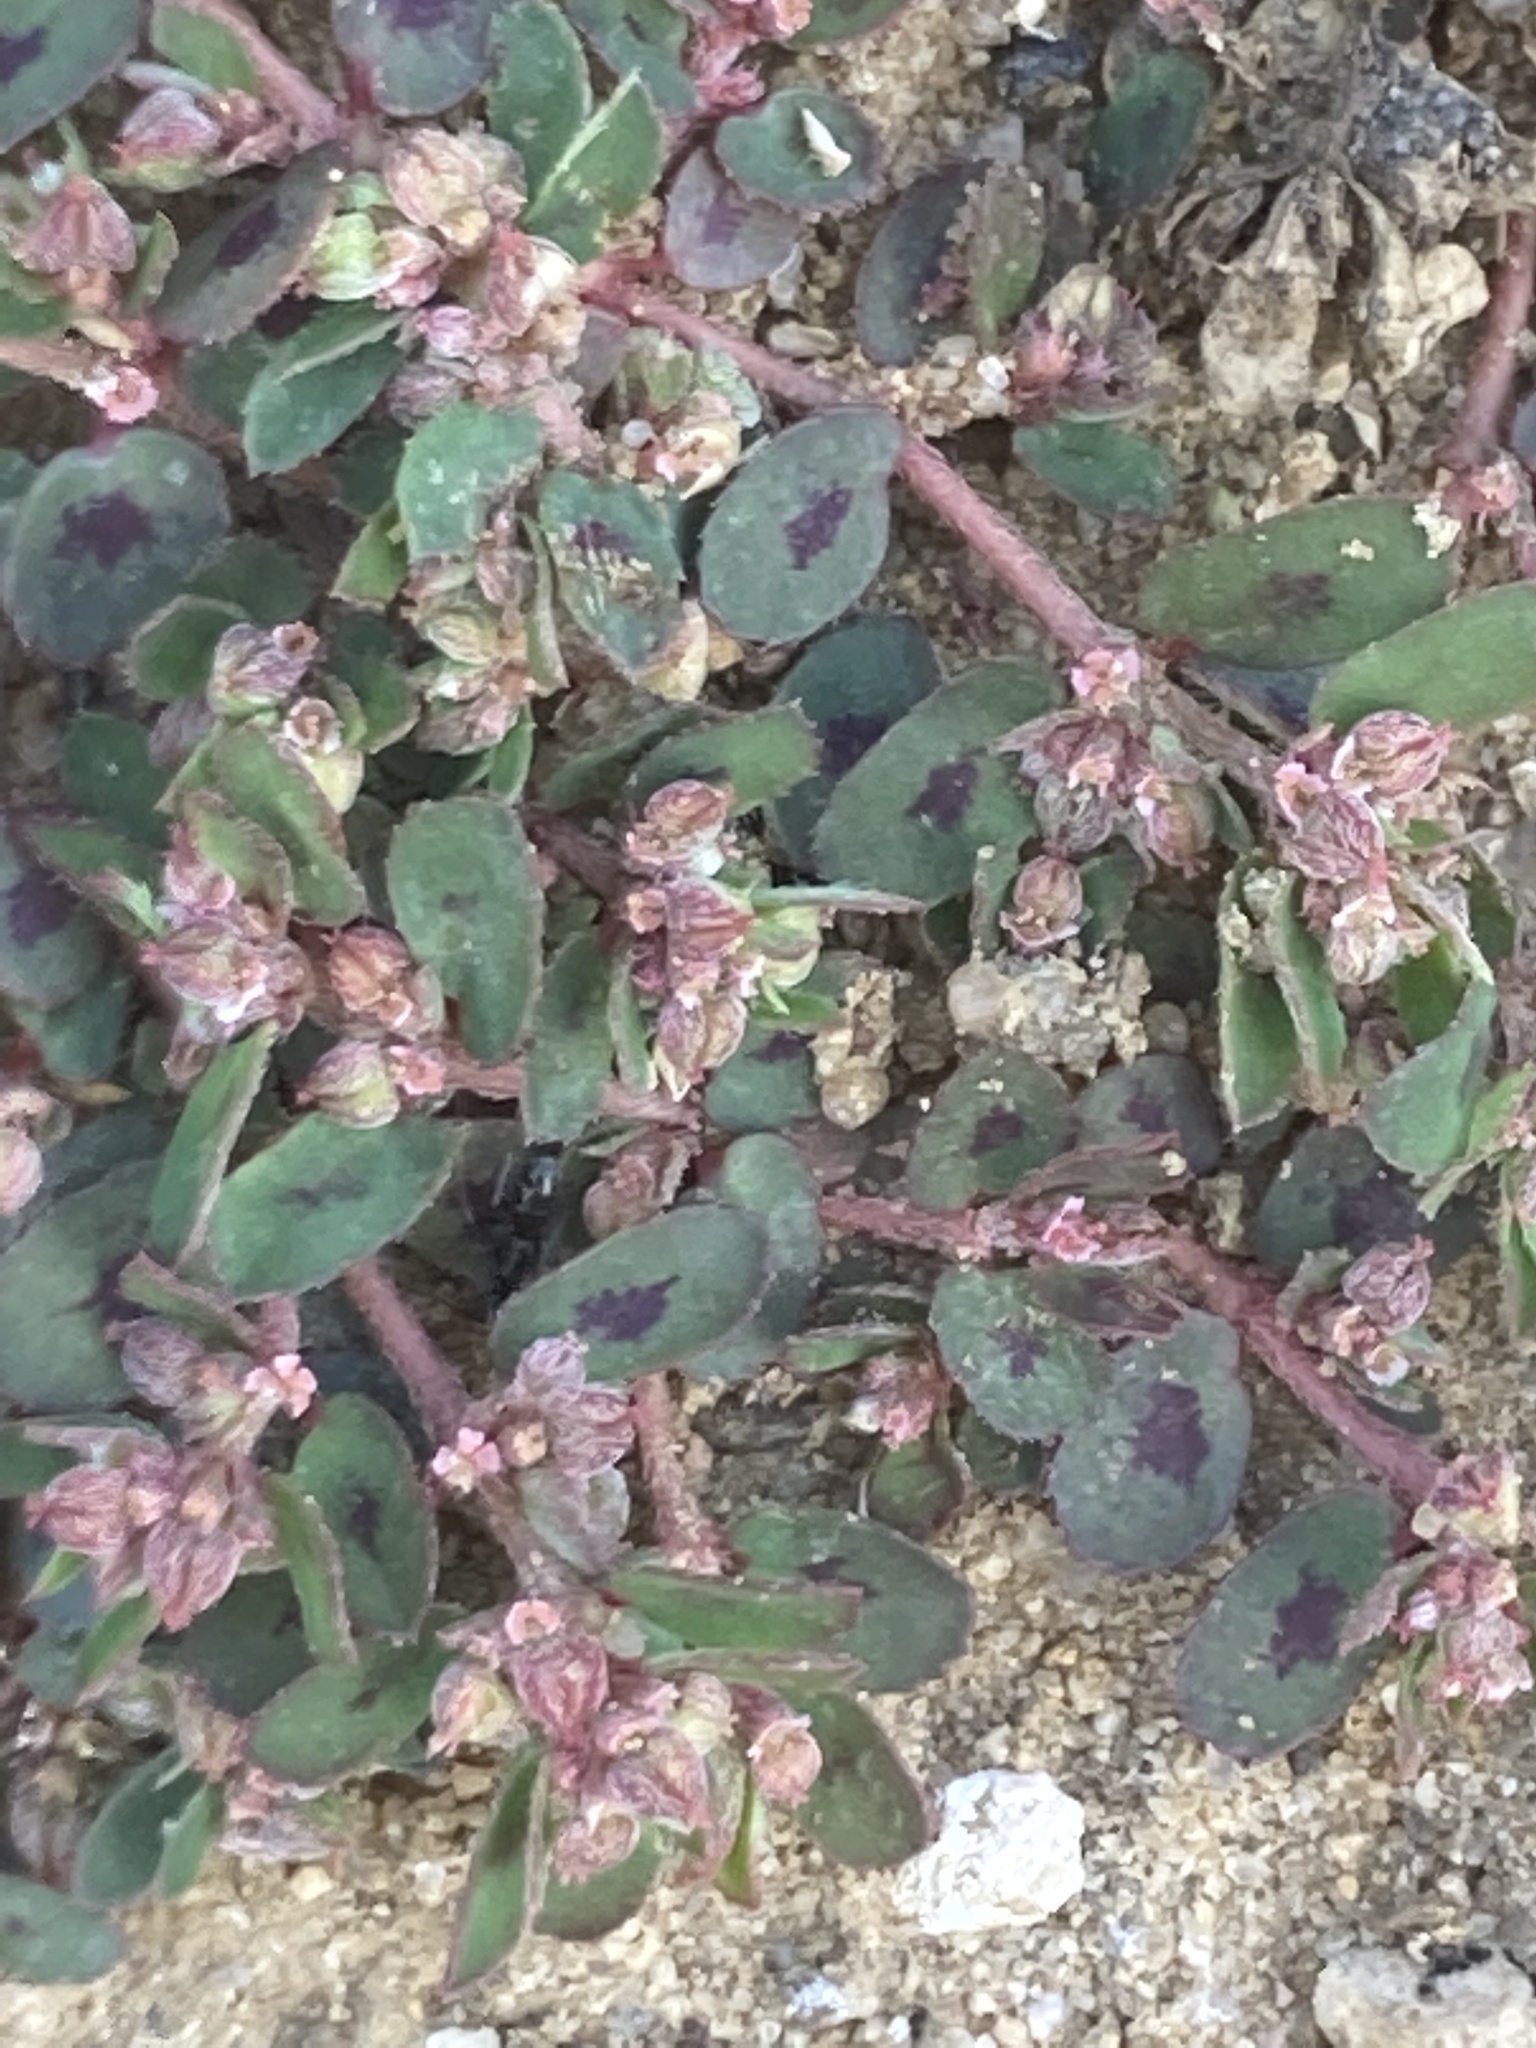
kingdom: Plantae
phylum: Tracheophyta
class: Magnoliopsida
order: Malpighiales
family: Euphorbiaceae
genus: Euphorbia
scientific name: Euphorbia maculata
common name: Spotted spurge
